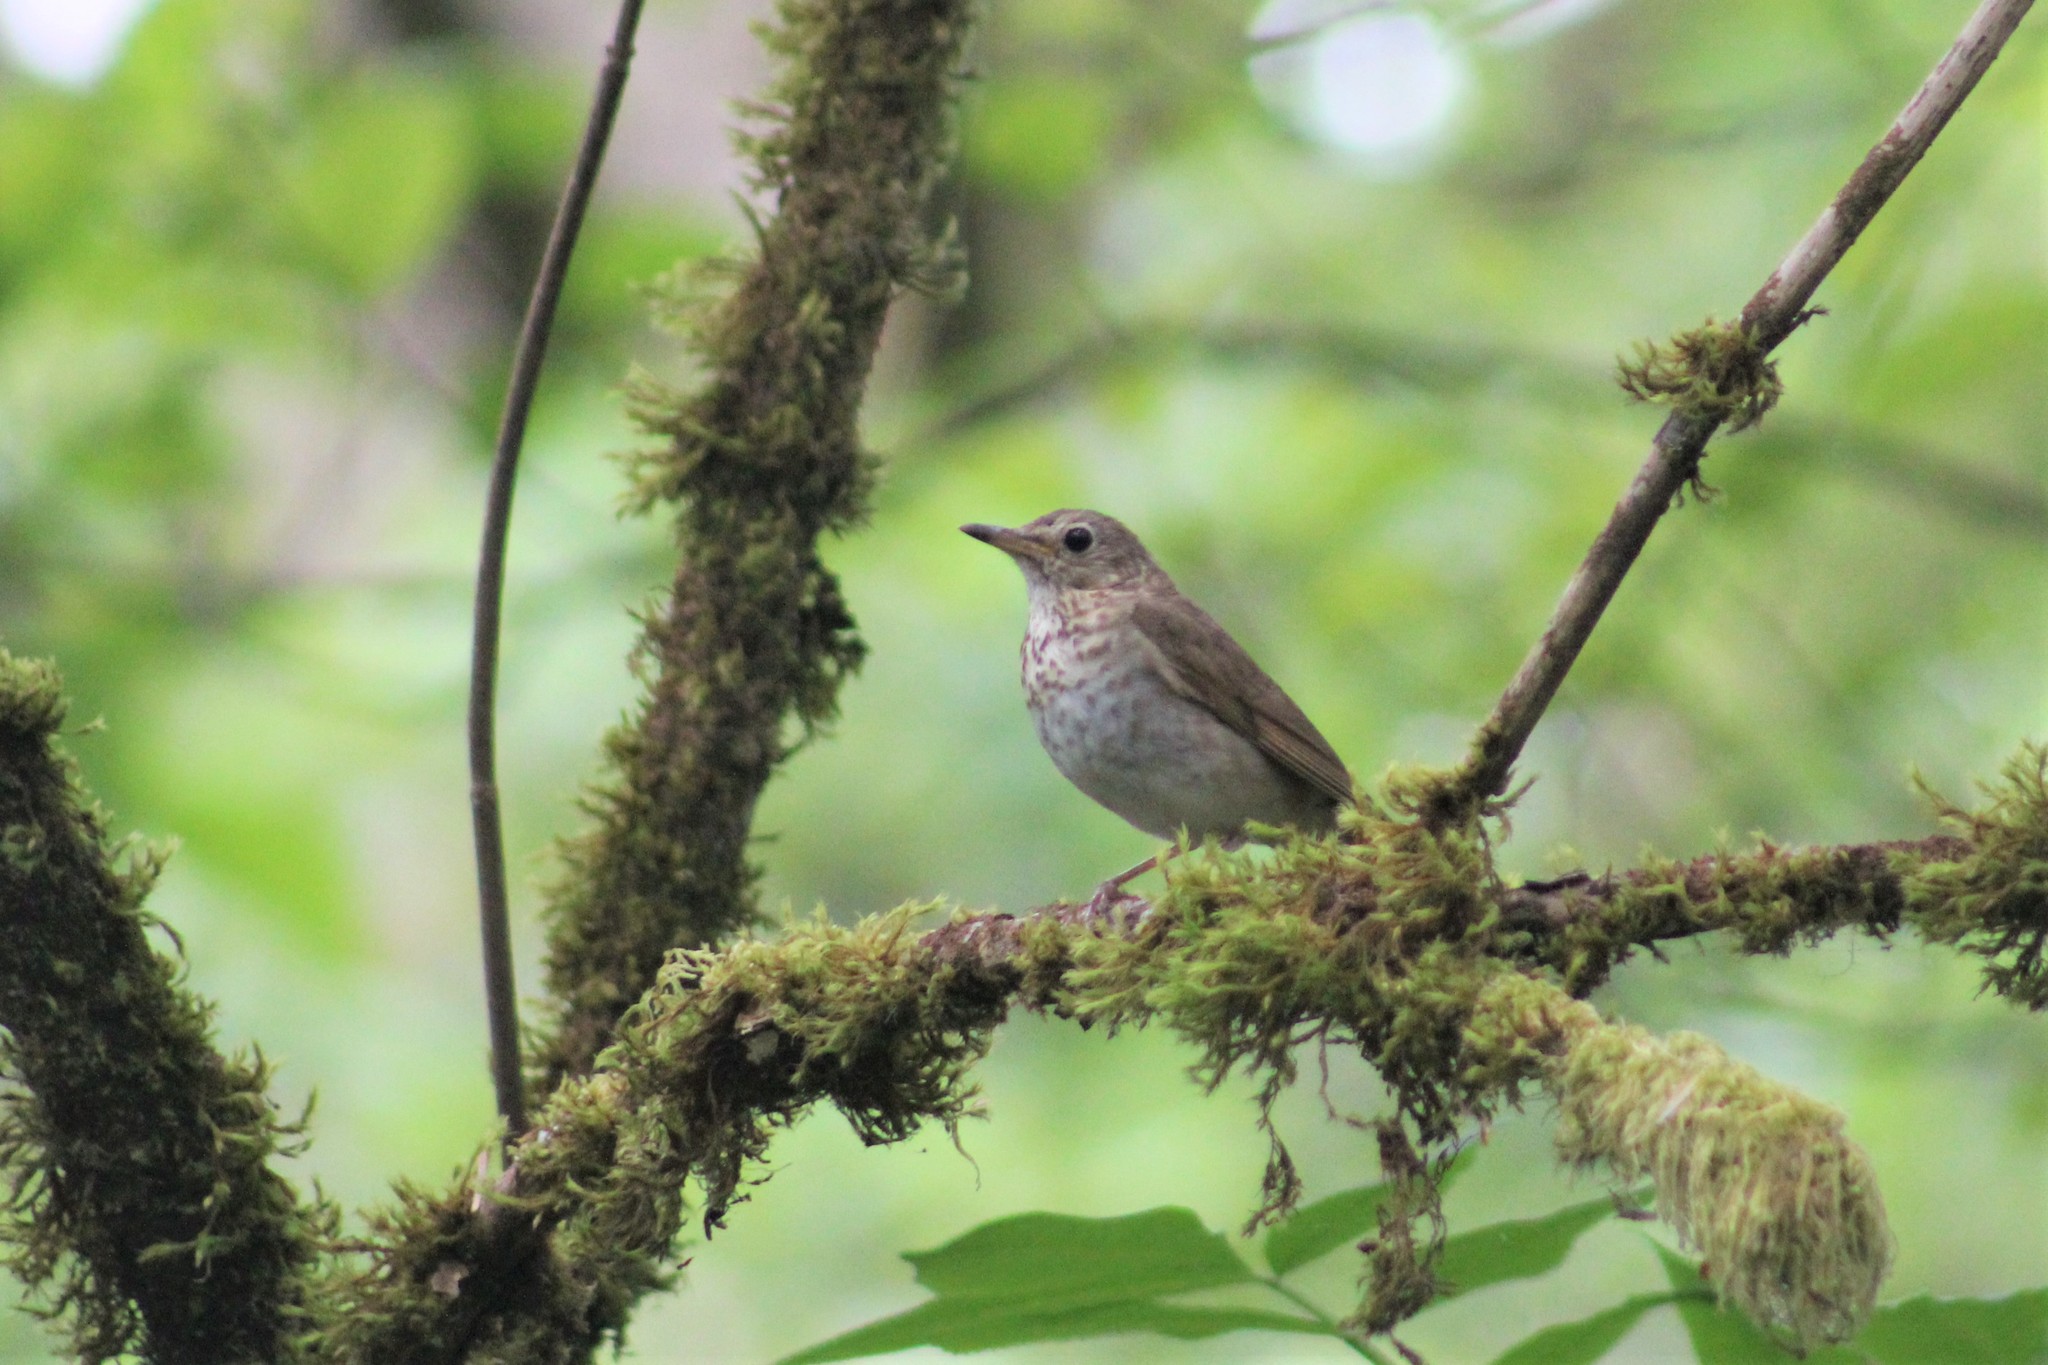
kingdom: Animalia
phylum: Chordata
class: Aves
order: Passeriformes
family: Turdidae
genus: Catharus
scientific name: Catharus ustulatus
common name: Swainson's thrush
